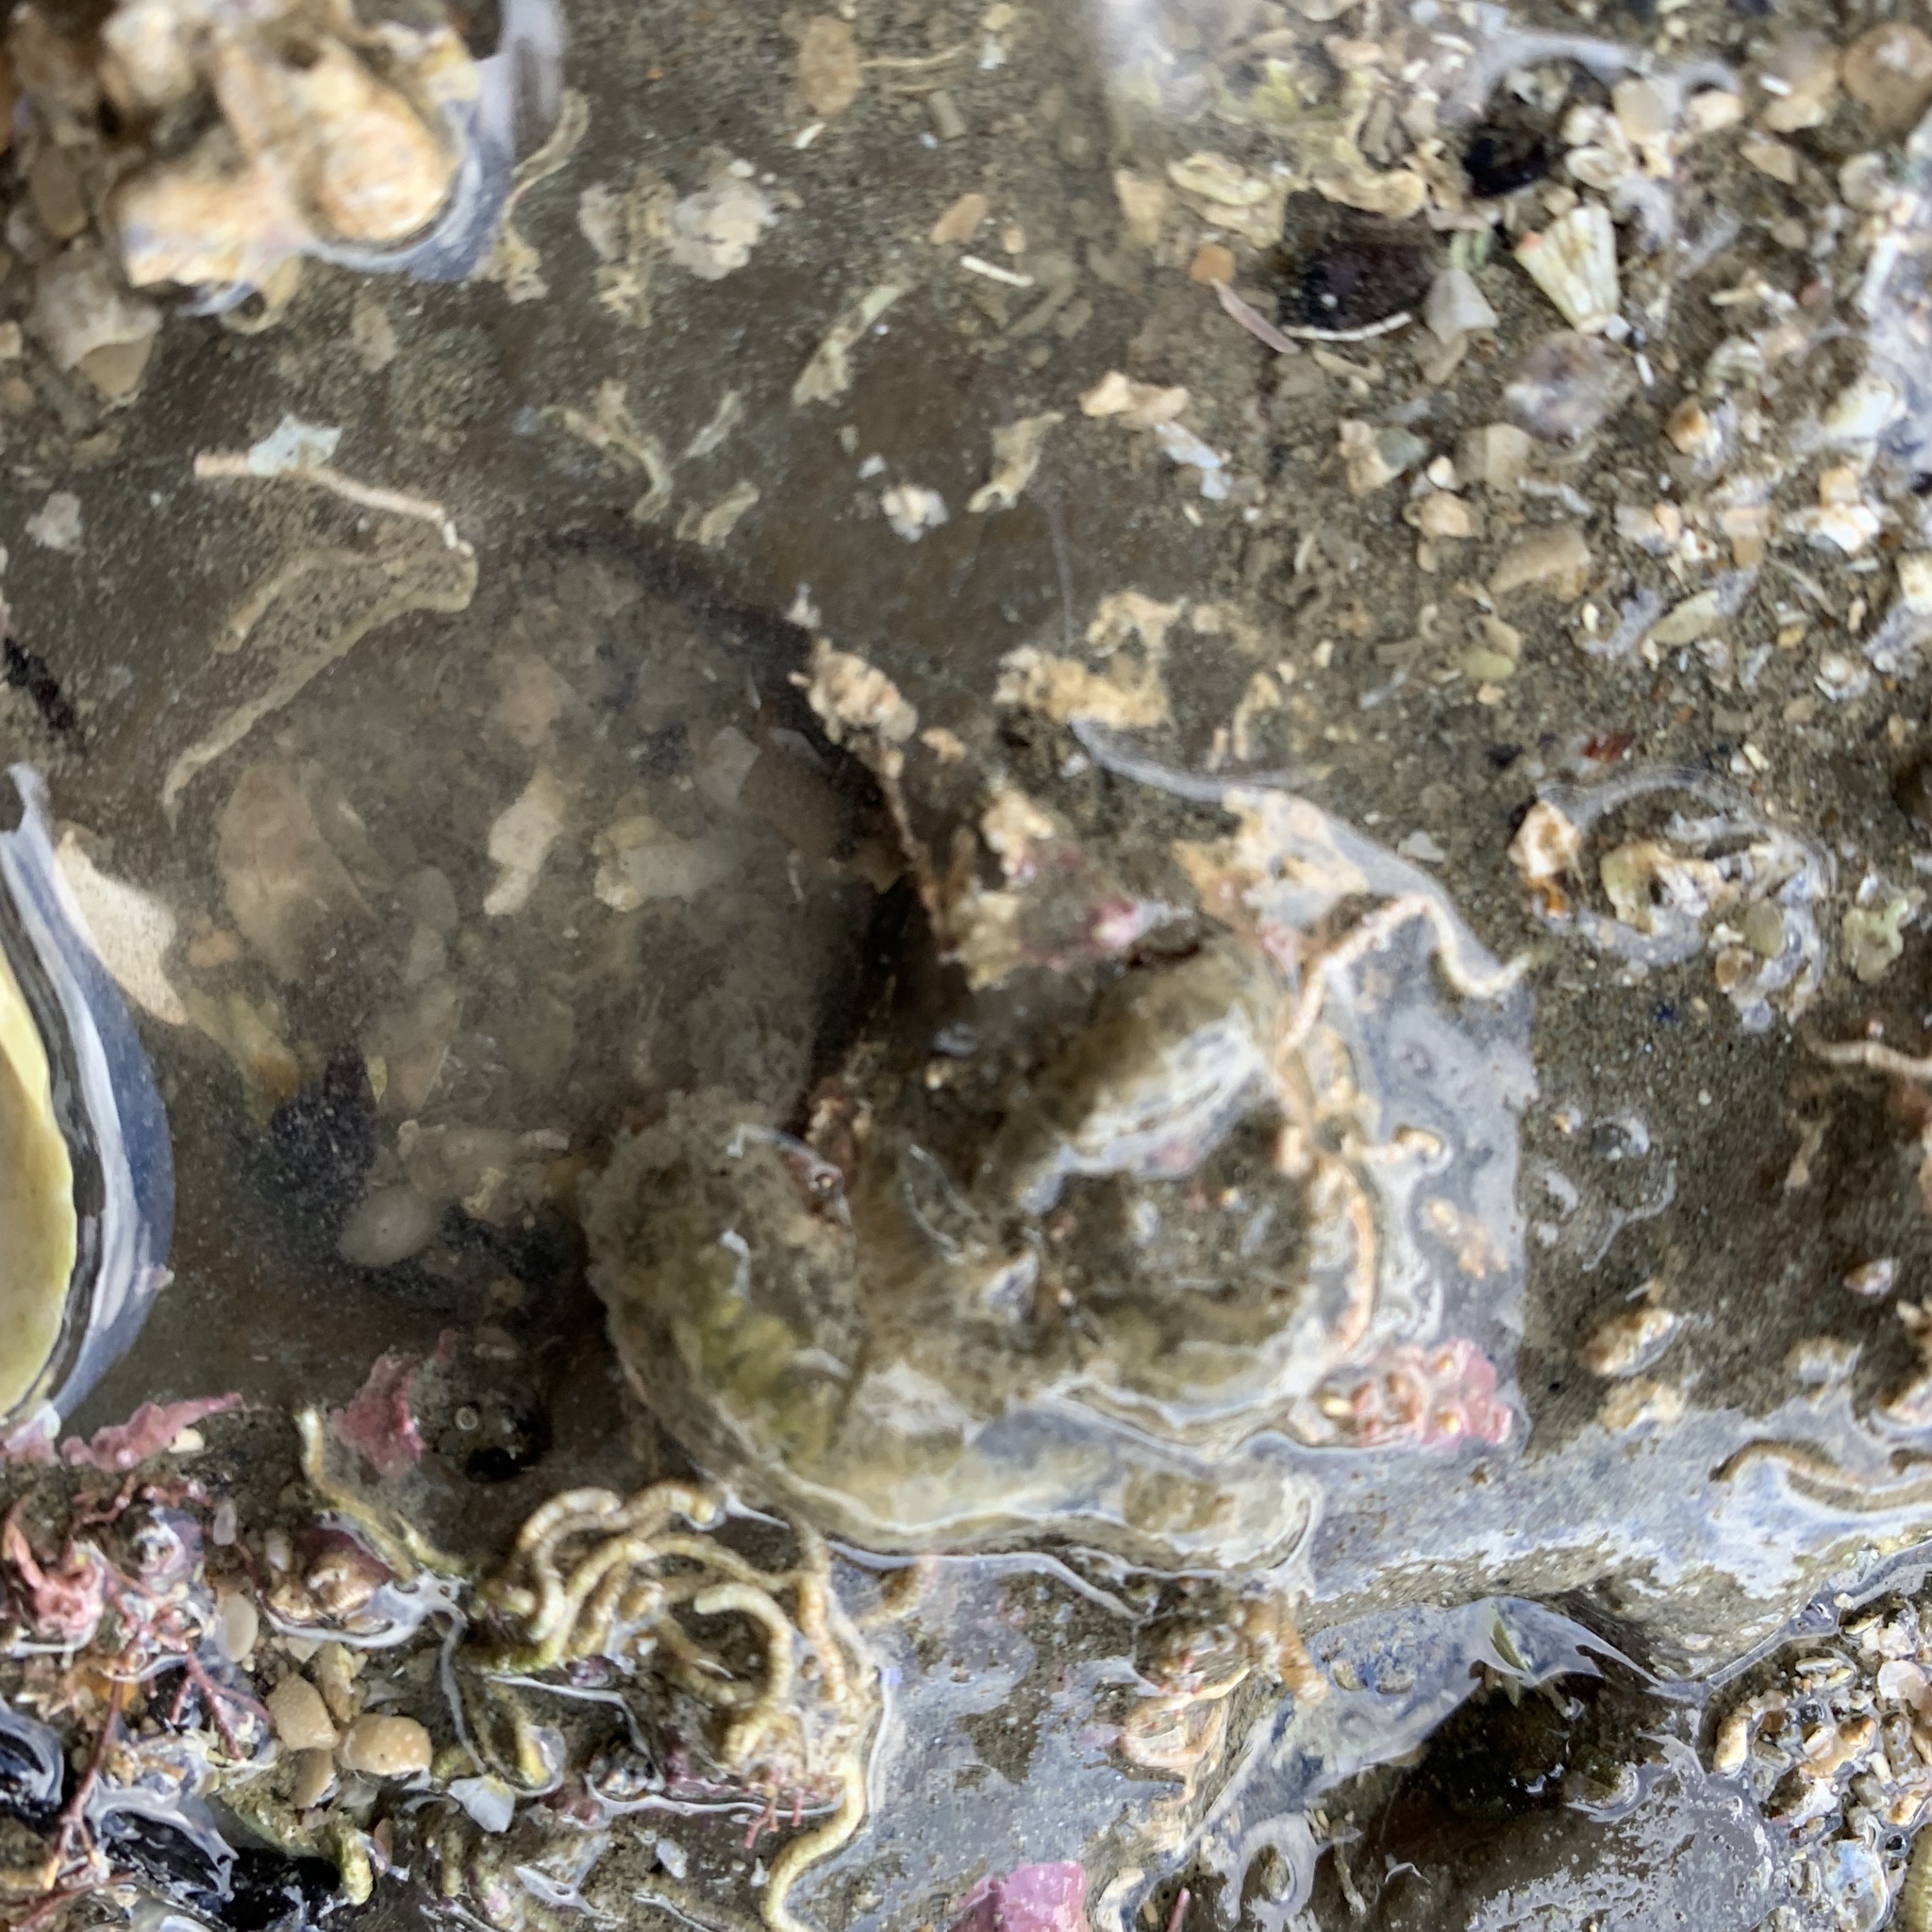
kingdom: Animalia
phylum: Annelida
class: Polychaeta
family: Flabelligeridae
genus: Flabelligera
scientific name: Flabelligera bicolor
